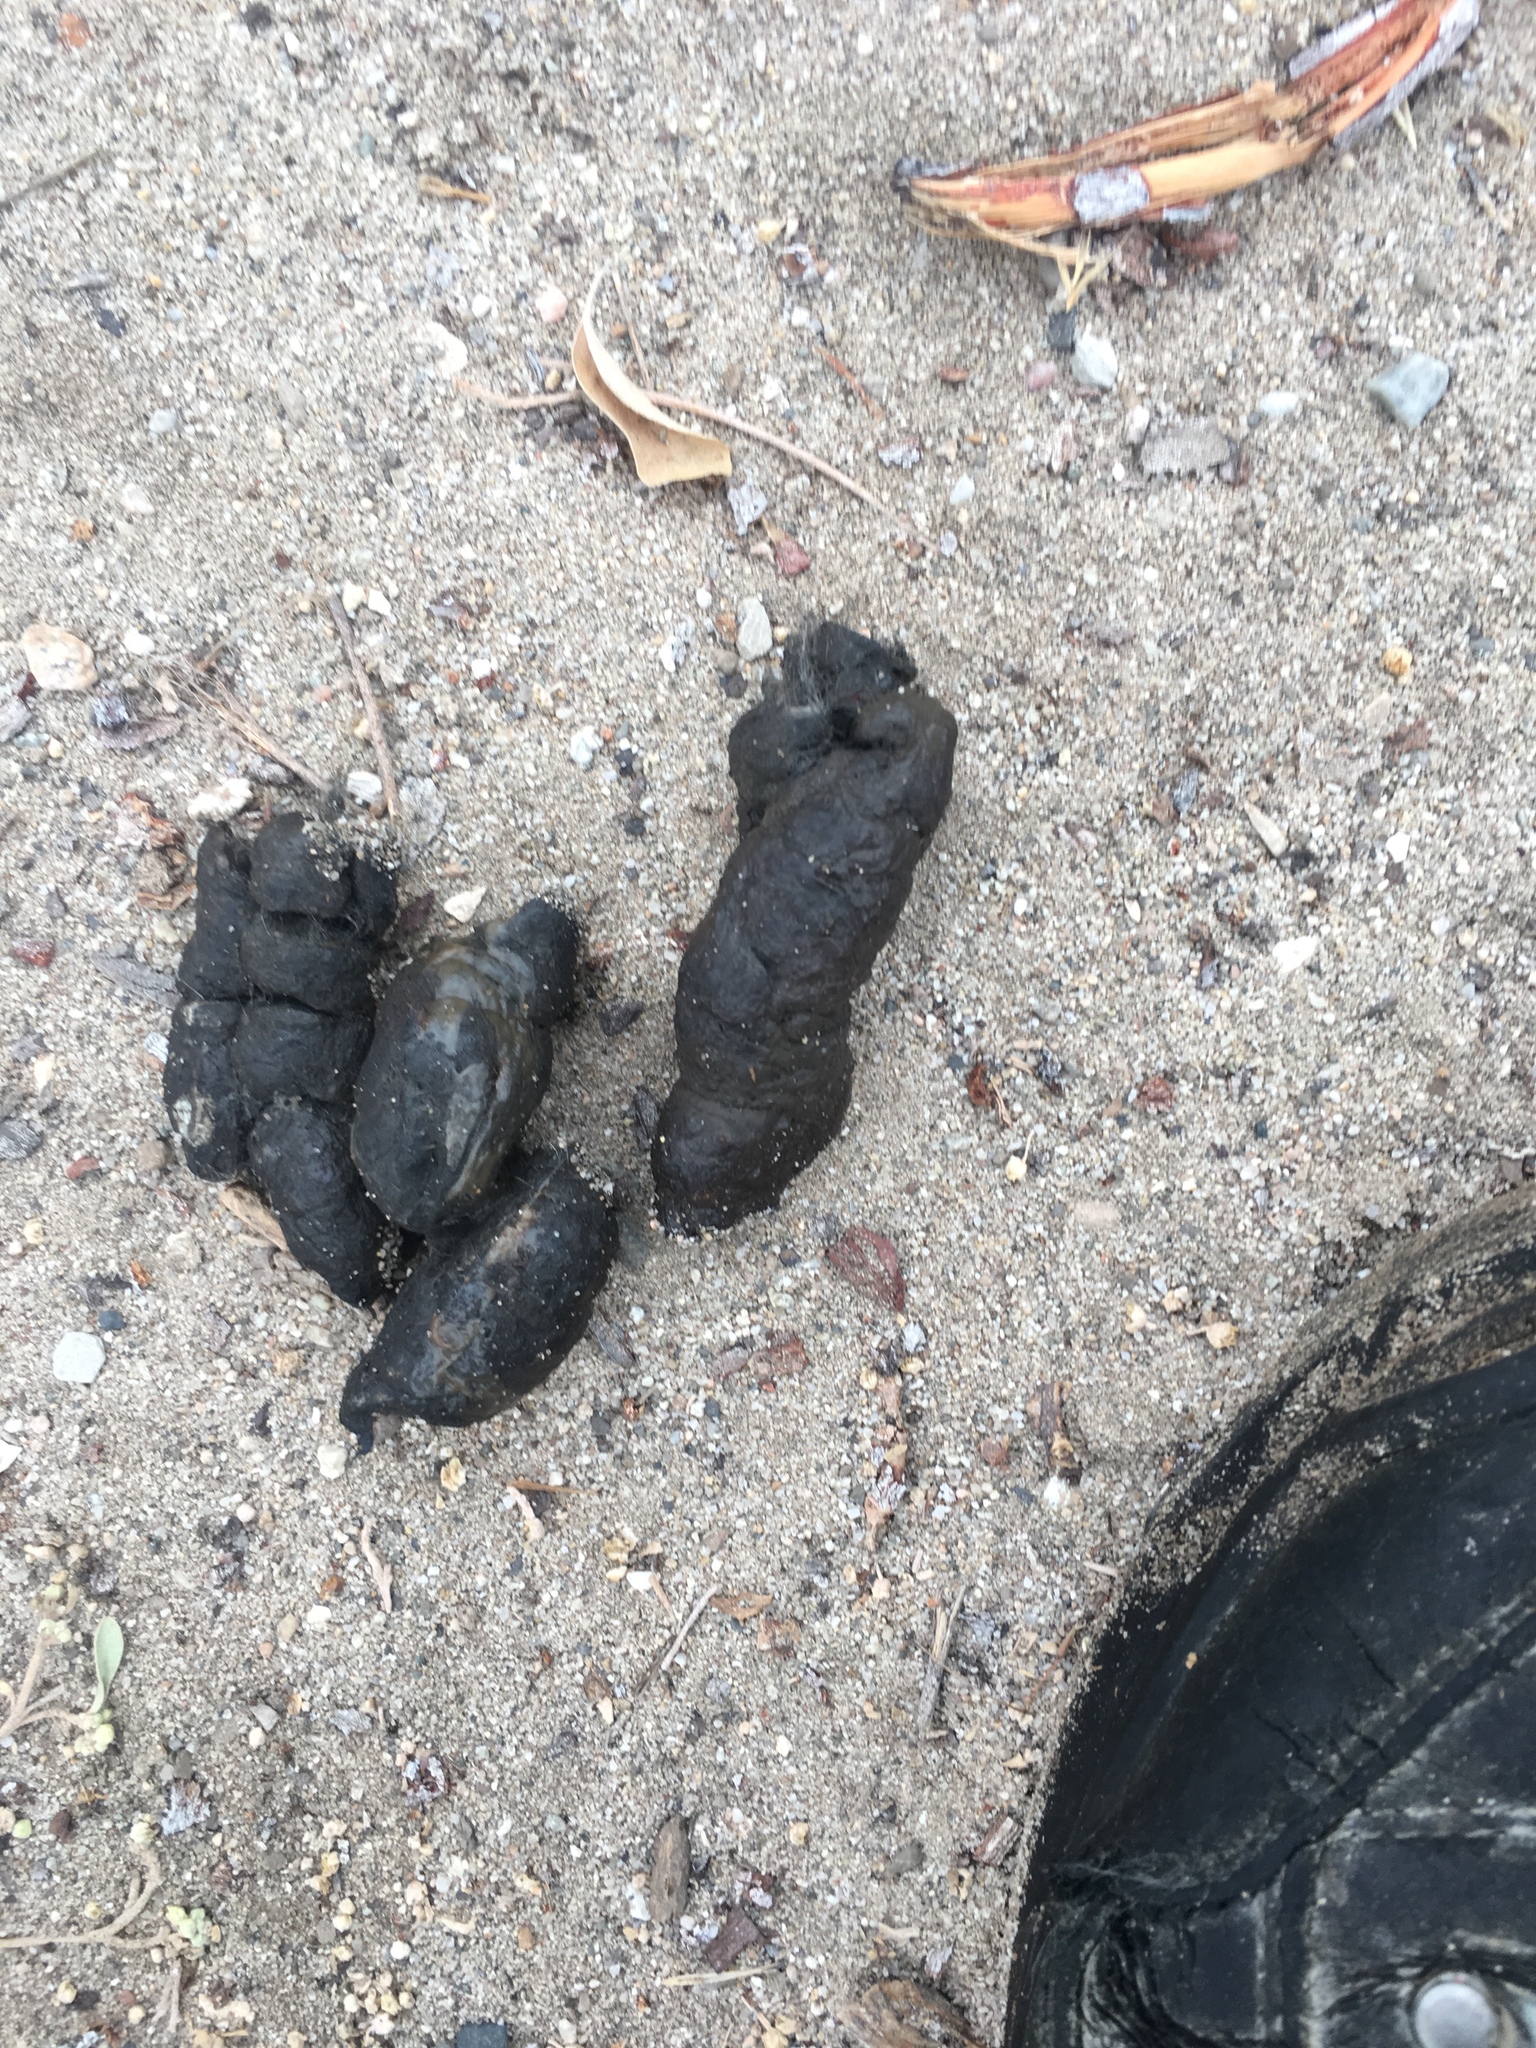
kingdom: Animalia
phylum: Chordata
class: Mammalia
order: Carnivora
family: Felidae
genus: Lynx
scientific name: Lynx rufus
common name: Bobcat
